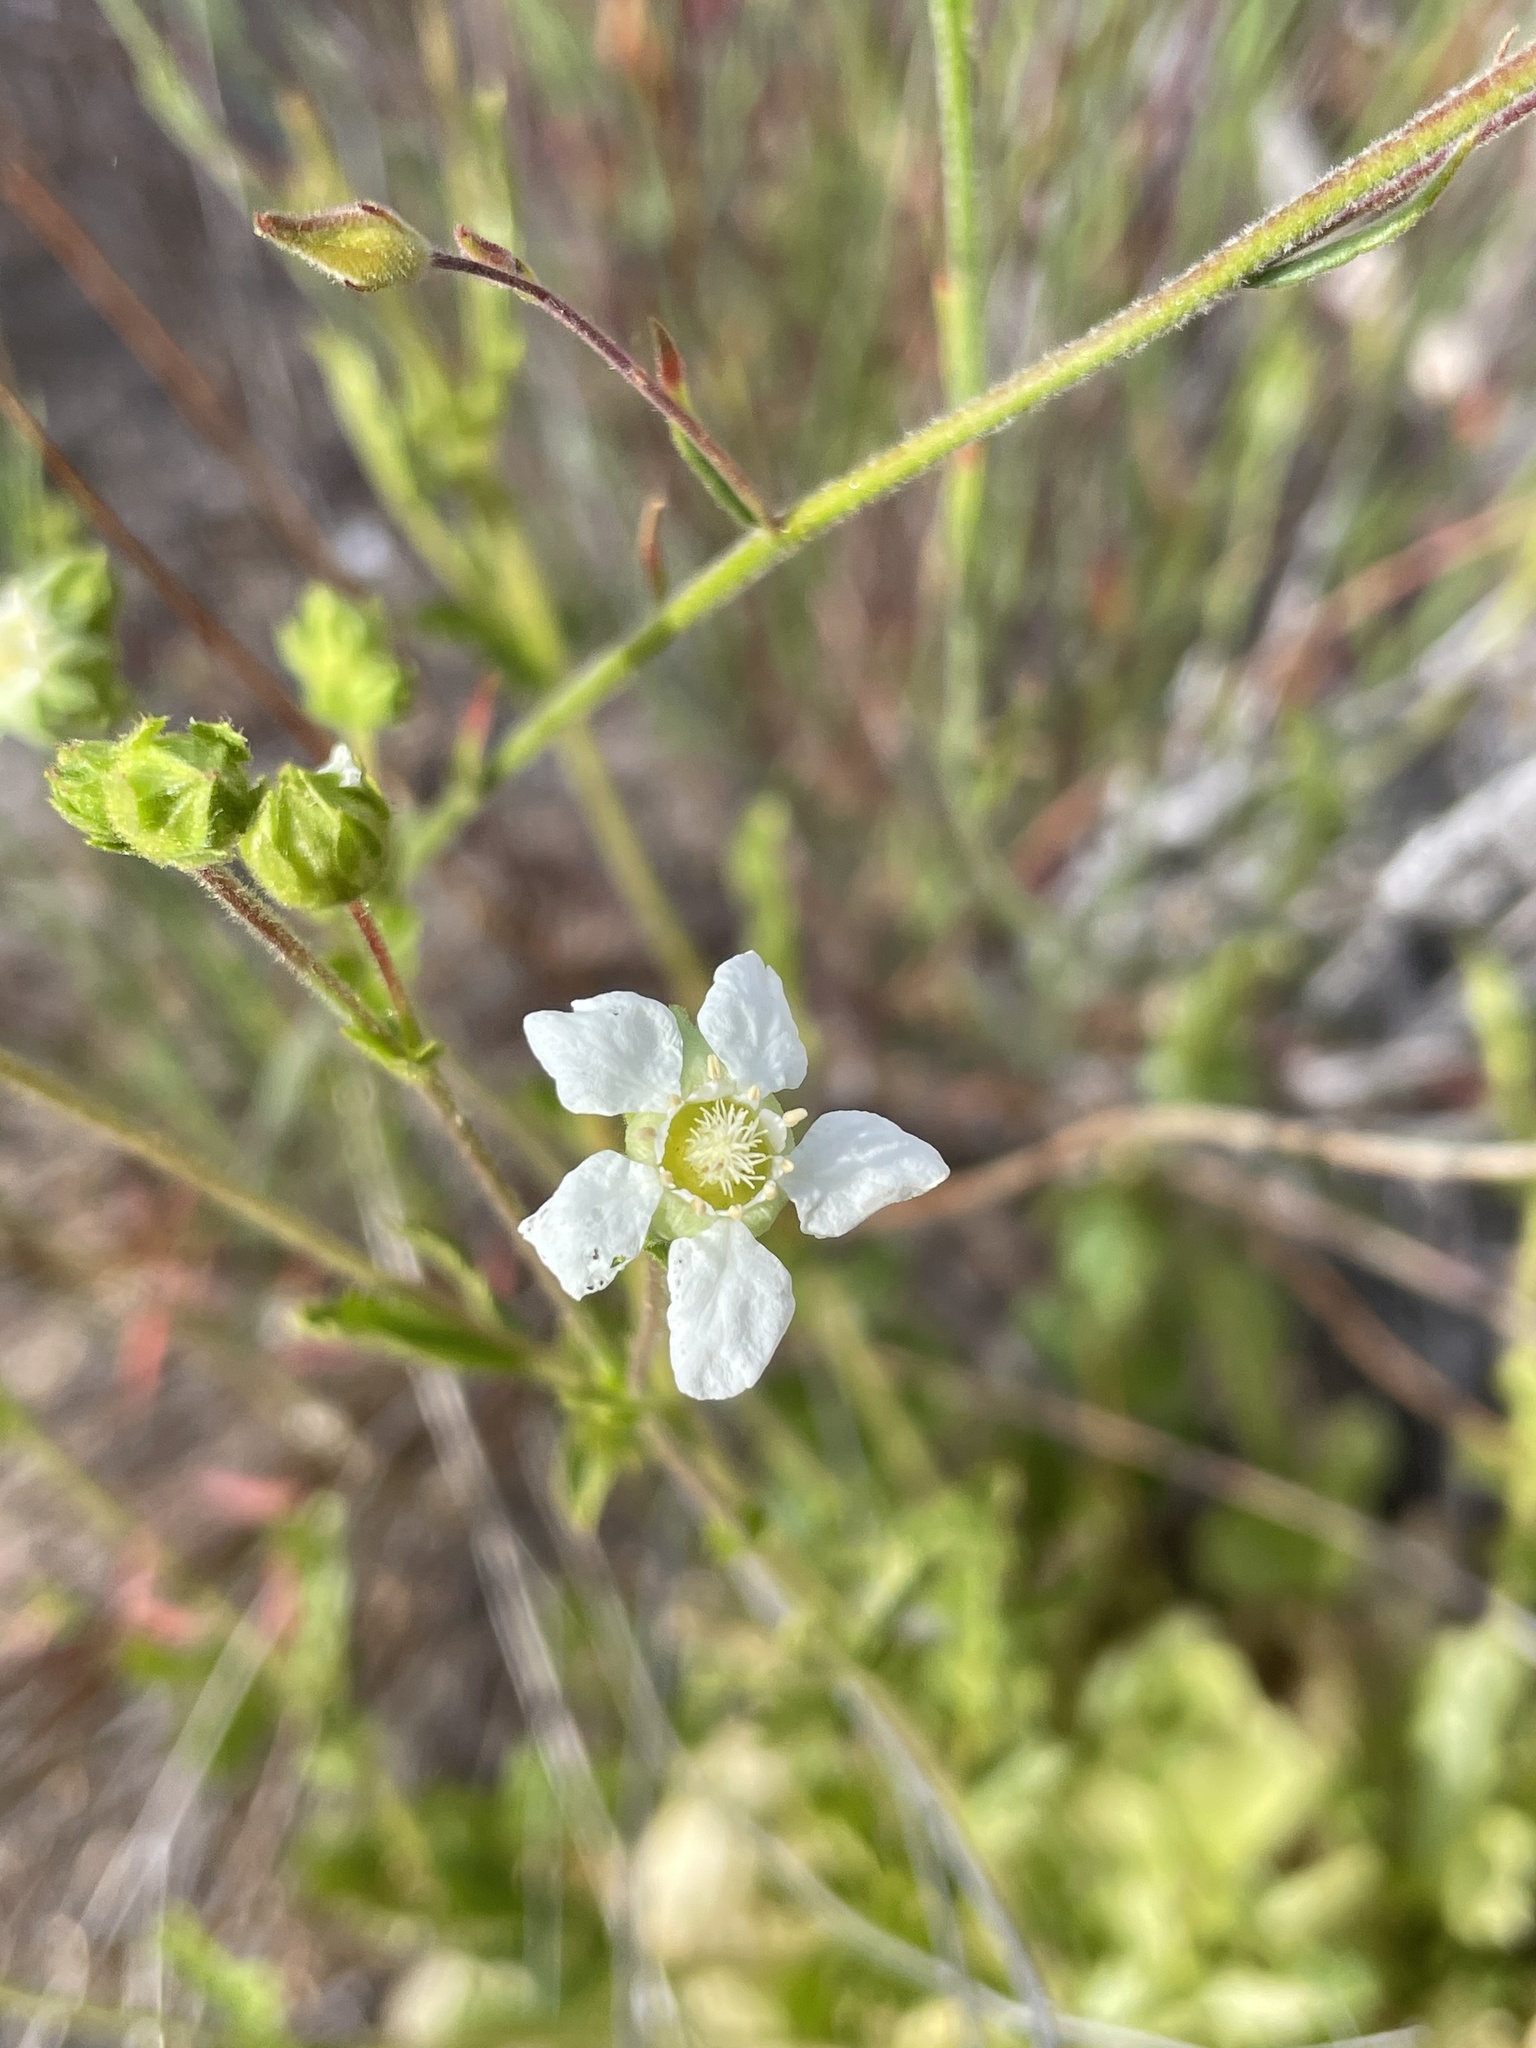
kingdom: Plantae
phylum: Tracheophyta
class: Magnoliopsida
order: Rosales
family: Rosaceae
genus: Potentilla
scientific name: Potentilla truncata
